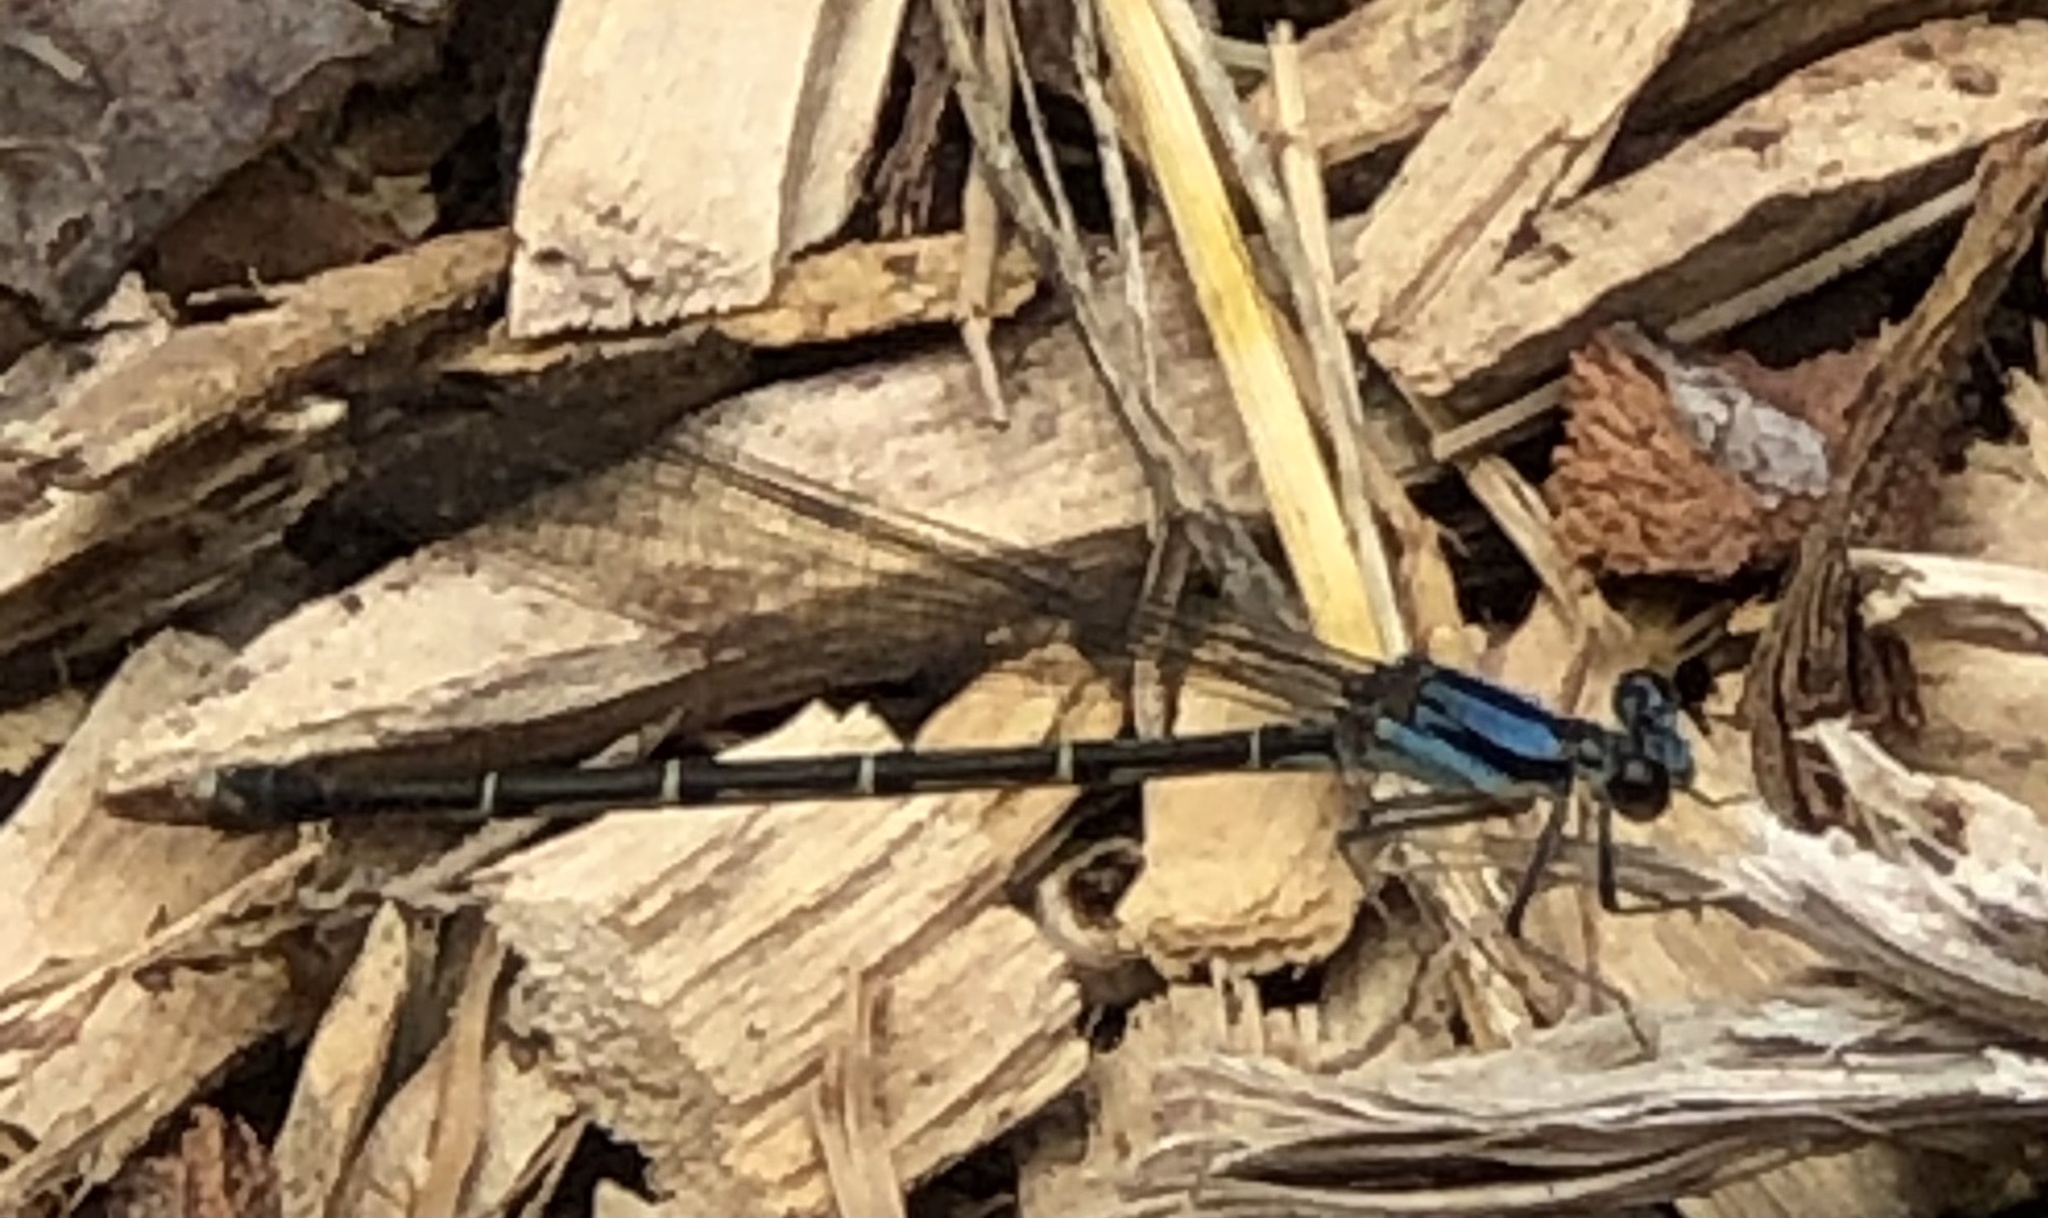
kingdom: Animalia
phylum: Arthropoda
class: Insecta
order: Odonata
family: Coenagrionidae
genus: Argia
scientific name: Argia tibialis
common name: Blue-tipped dancer
